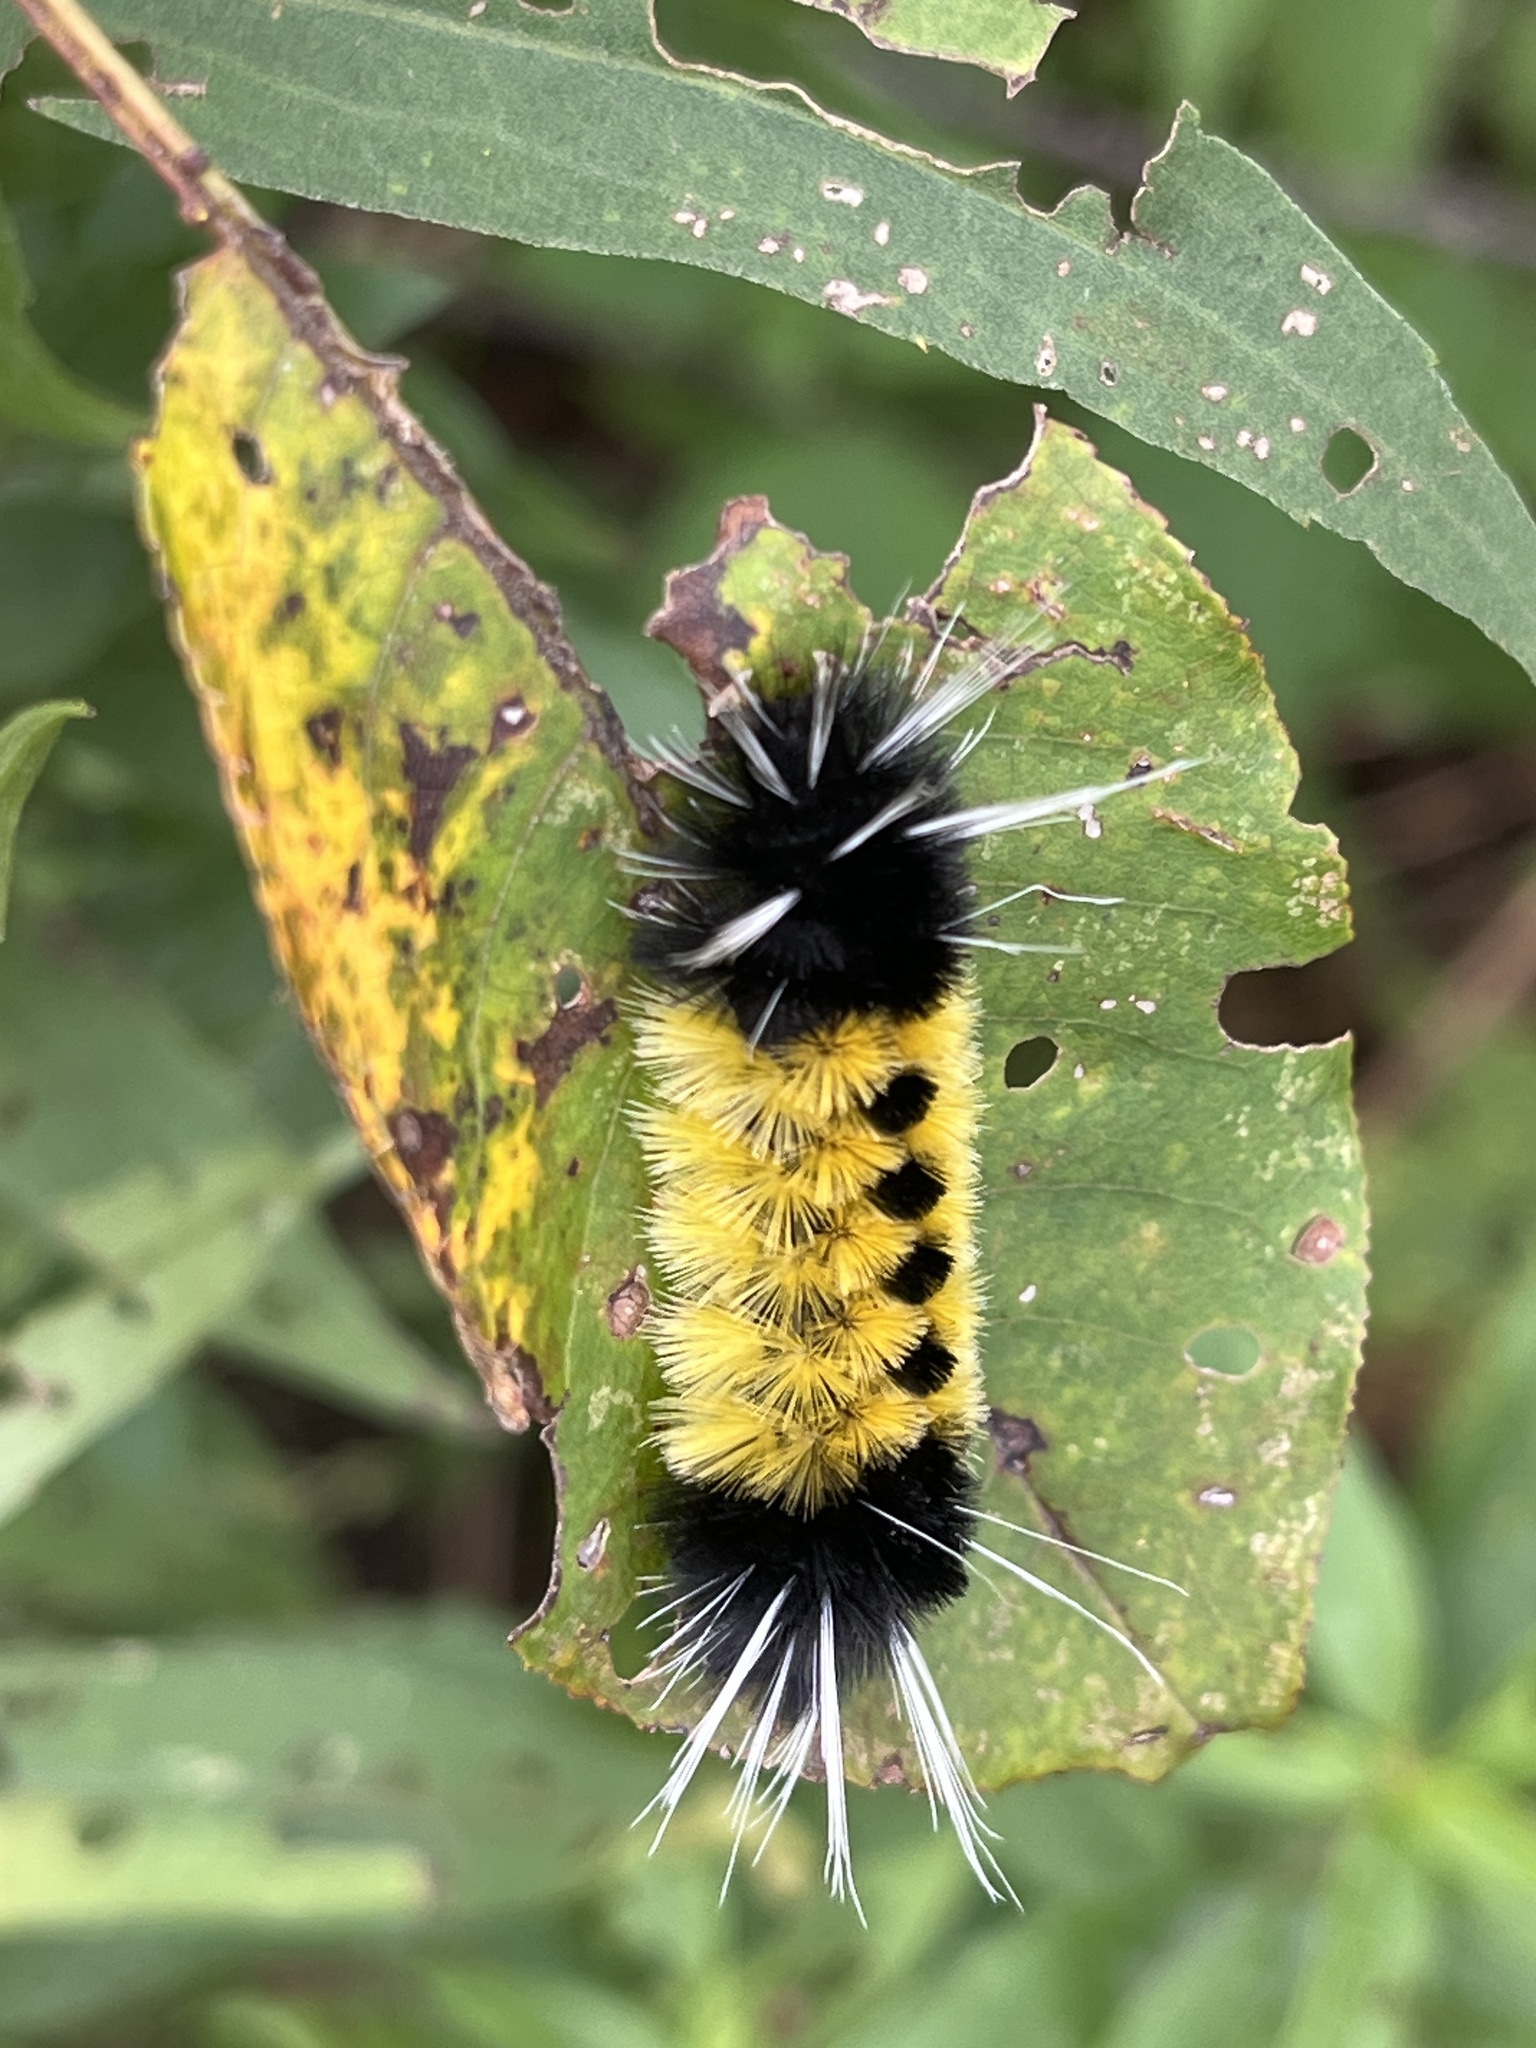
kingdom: Animalia
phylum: Arthropoda
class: Insecta
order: Lepidoptera
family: Erebidae
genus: Lophocampa
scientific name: Lophocampa maculata
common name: Spotted tussock moth
